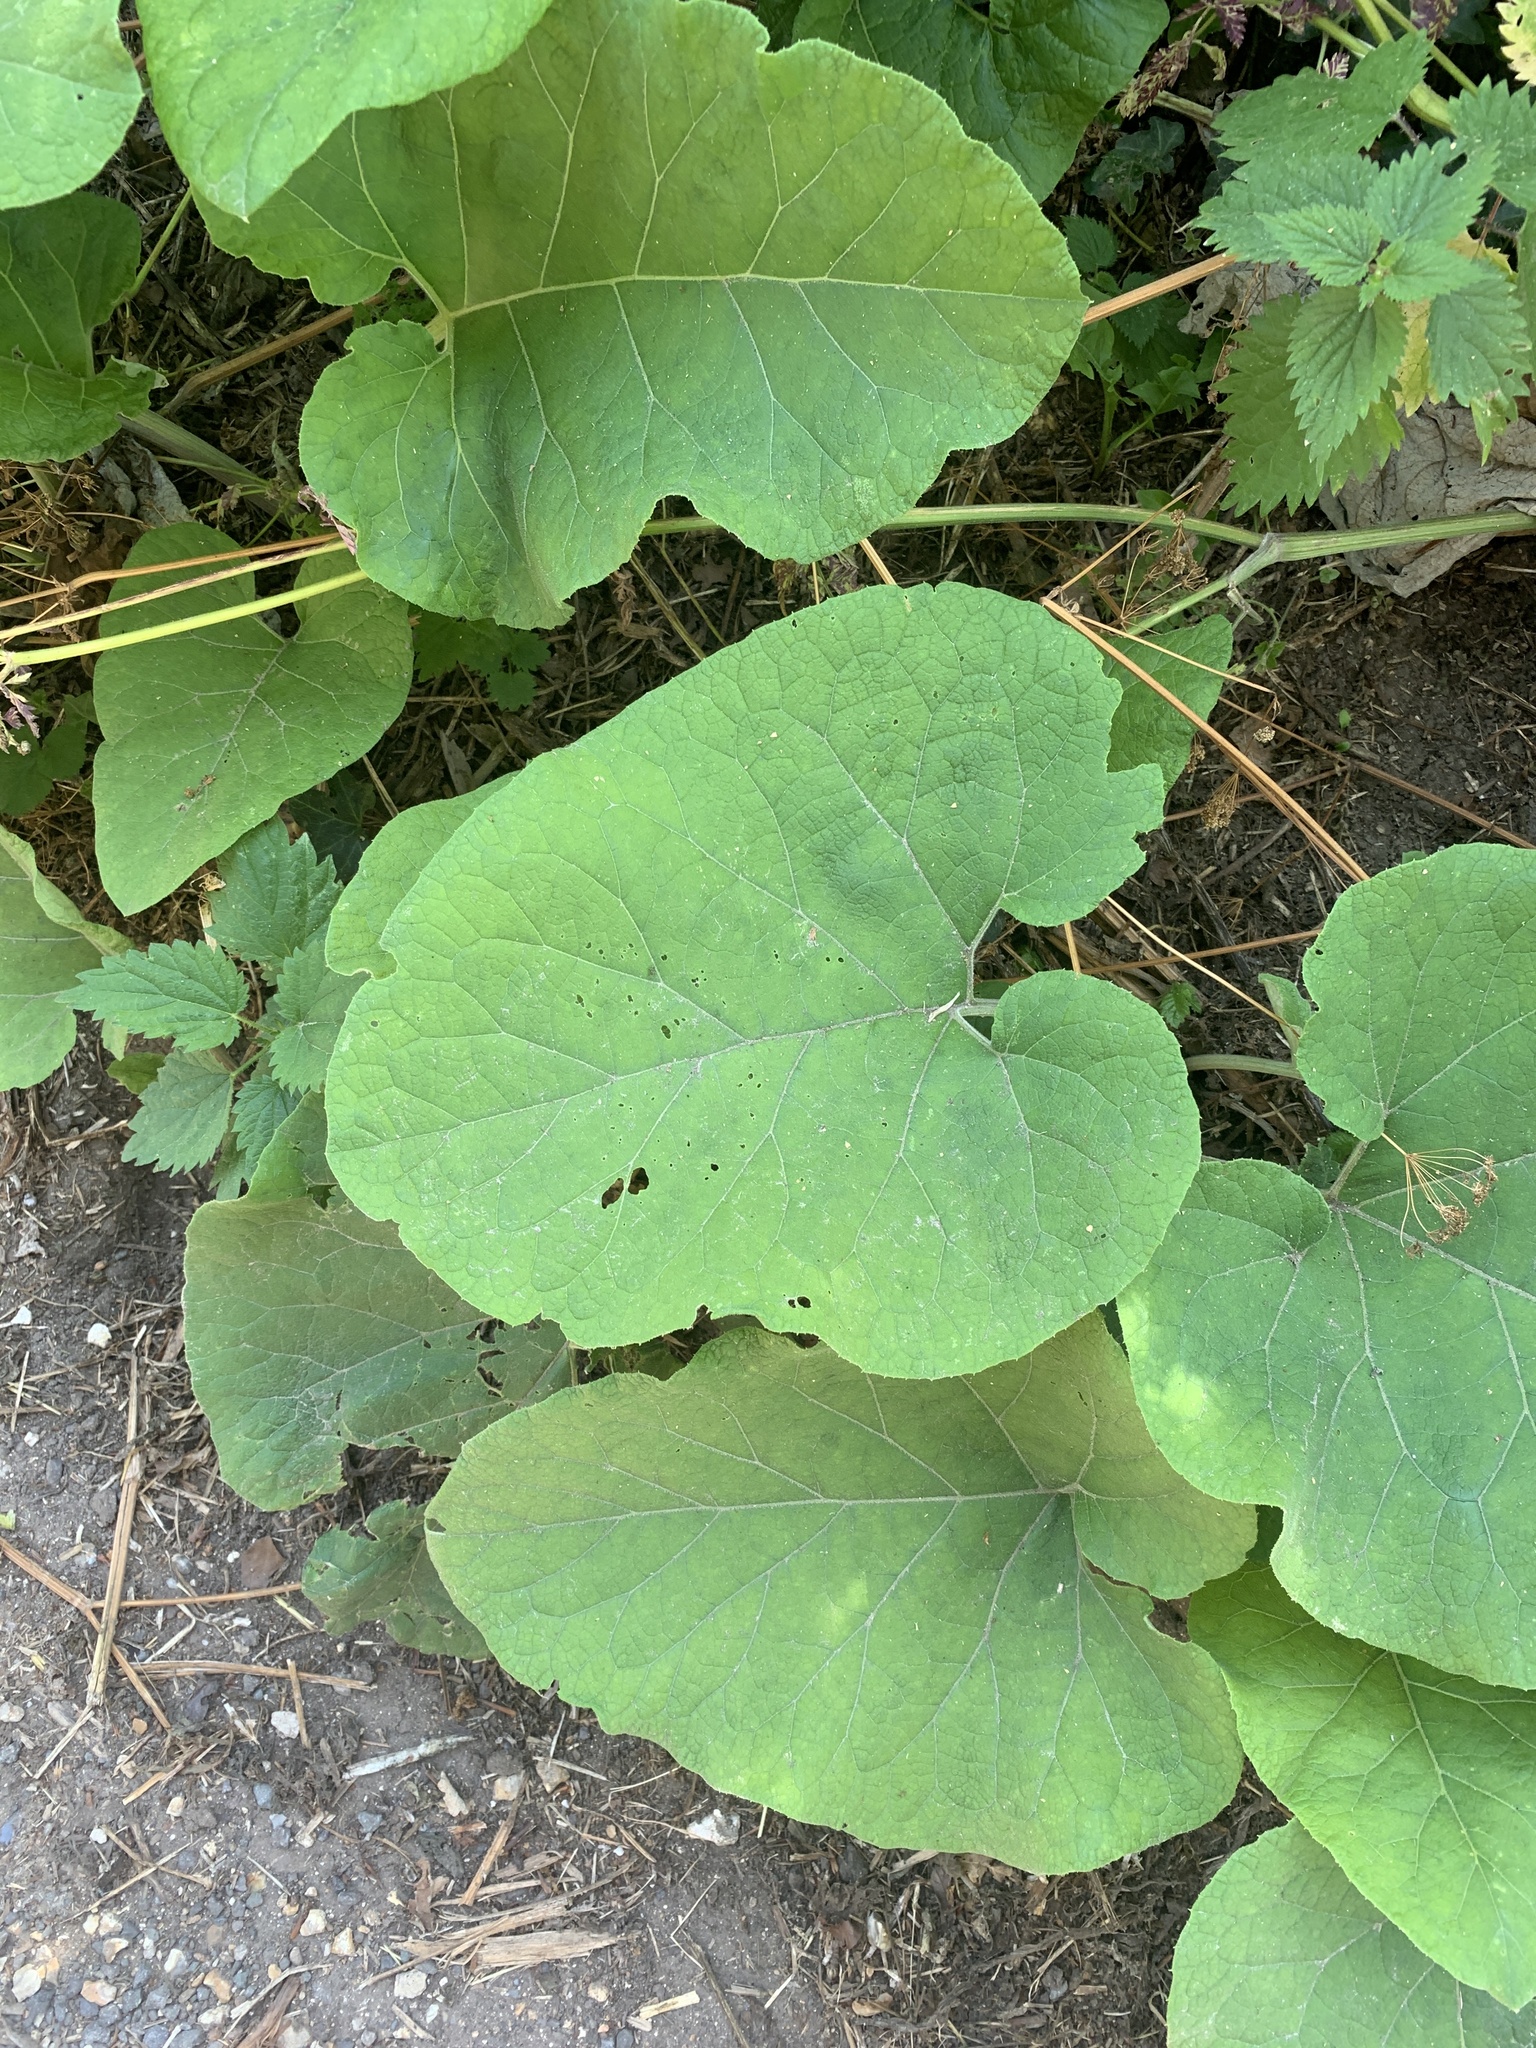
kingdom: Plantae
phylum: Tracheophyta
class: Magnoliopsida
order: Asterales
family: Asteraceae
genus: Arctium
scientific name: Arctium lappa
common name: Greater burdock
